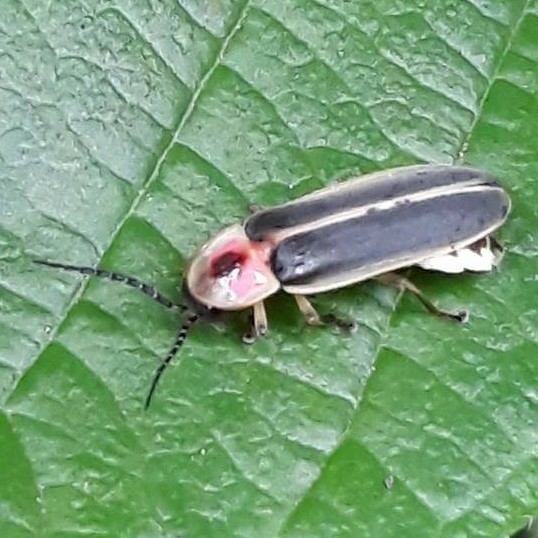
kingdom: Animalia
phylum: Arthropoda
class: Insecta
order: Coleoptera
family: Lampyridae
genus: Photinus
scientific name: Photinus pyralis
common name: Big dipper firefly
